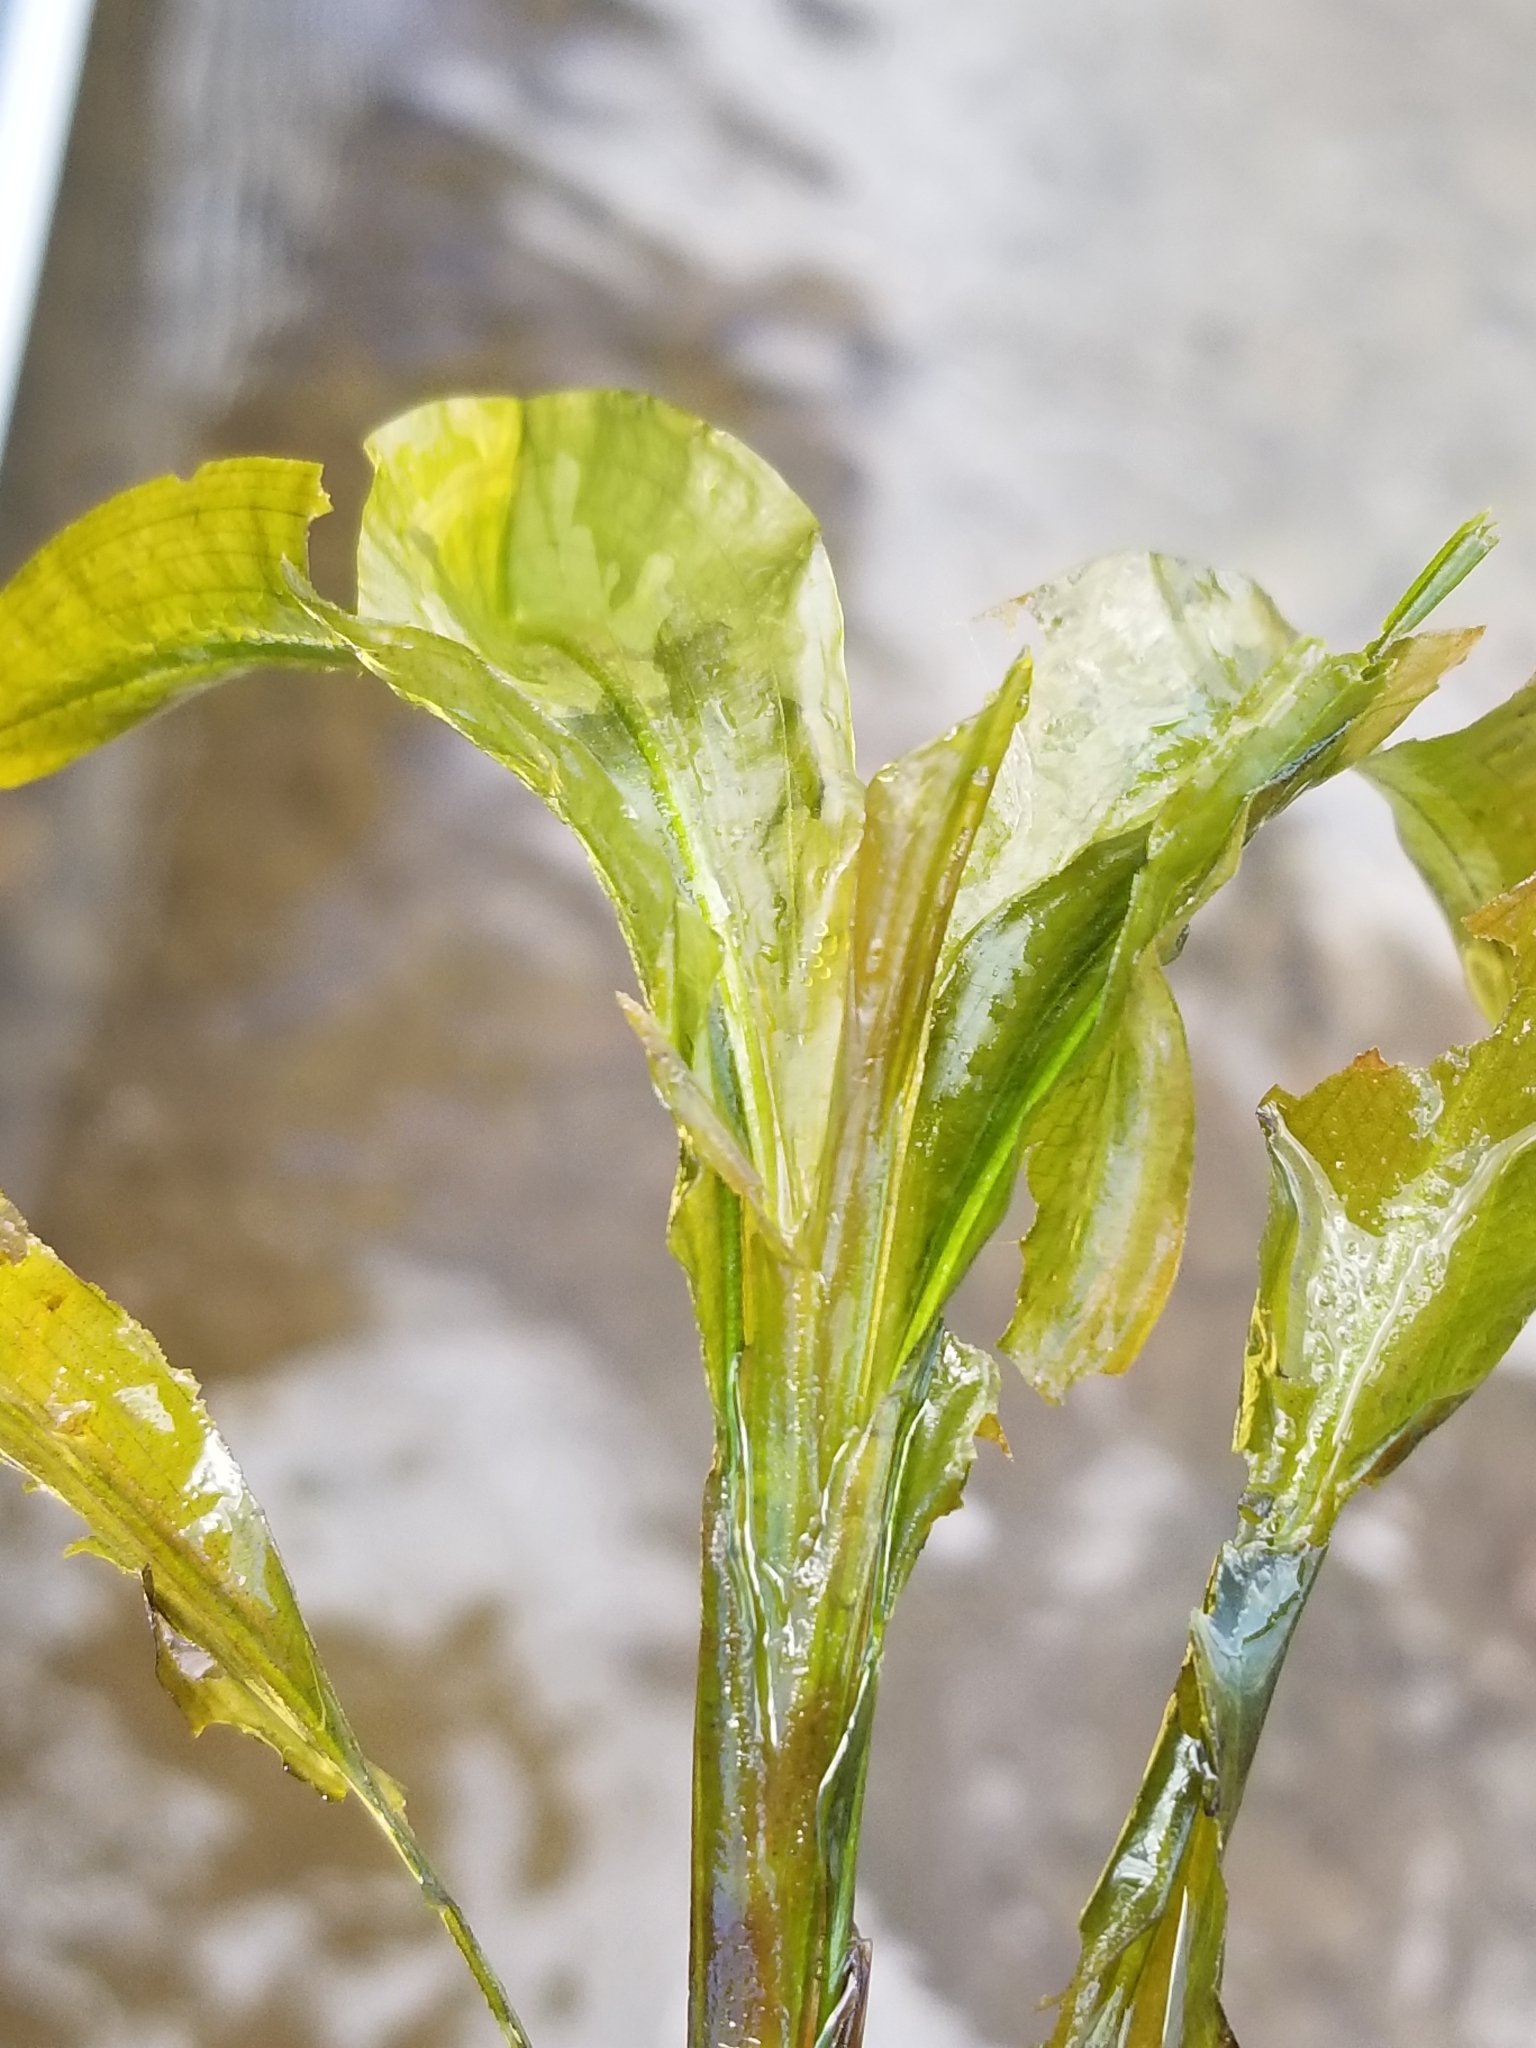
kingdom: Plantae
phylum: Tracheophyta
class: Liliopsida
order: Alismatales
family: Potamogetonaceae
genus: Potamogeton
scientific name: Potamogeton amplifolius
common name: Broad-leaved pondweed
